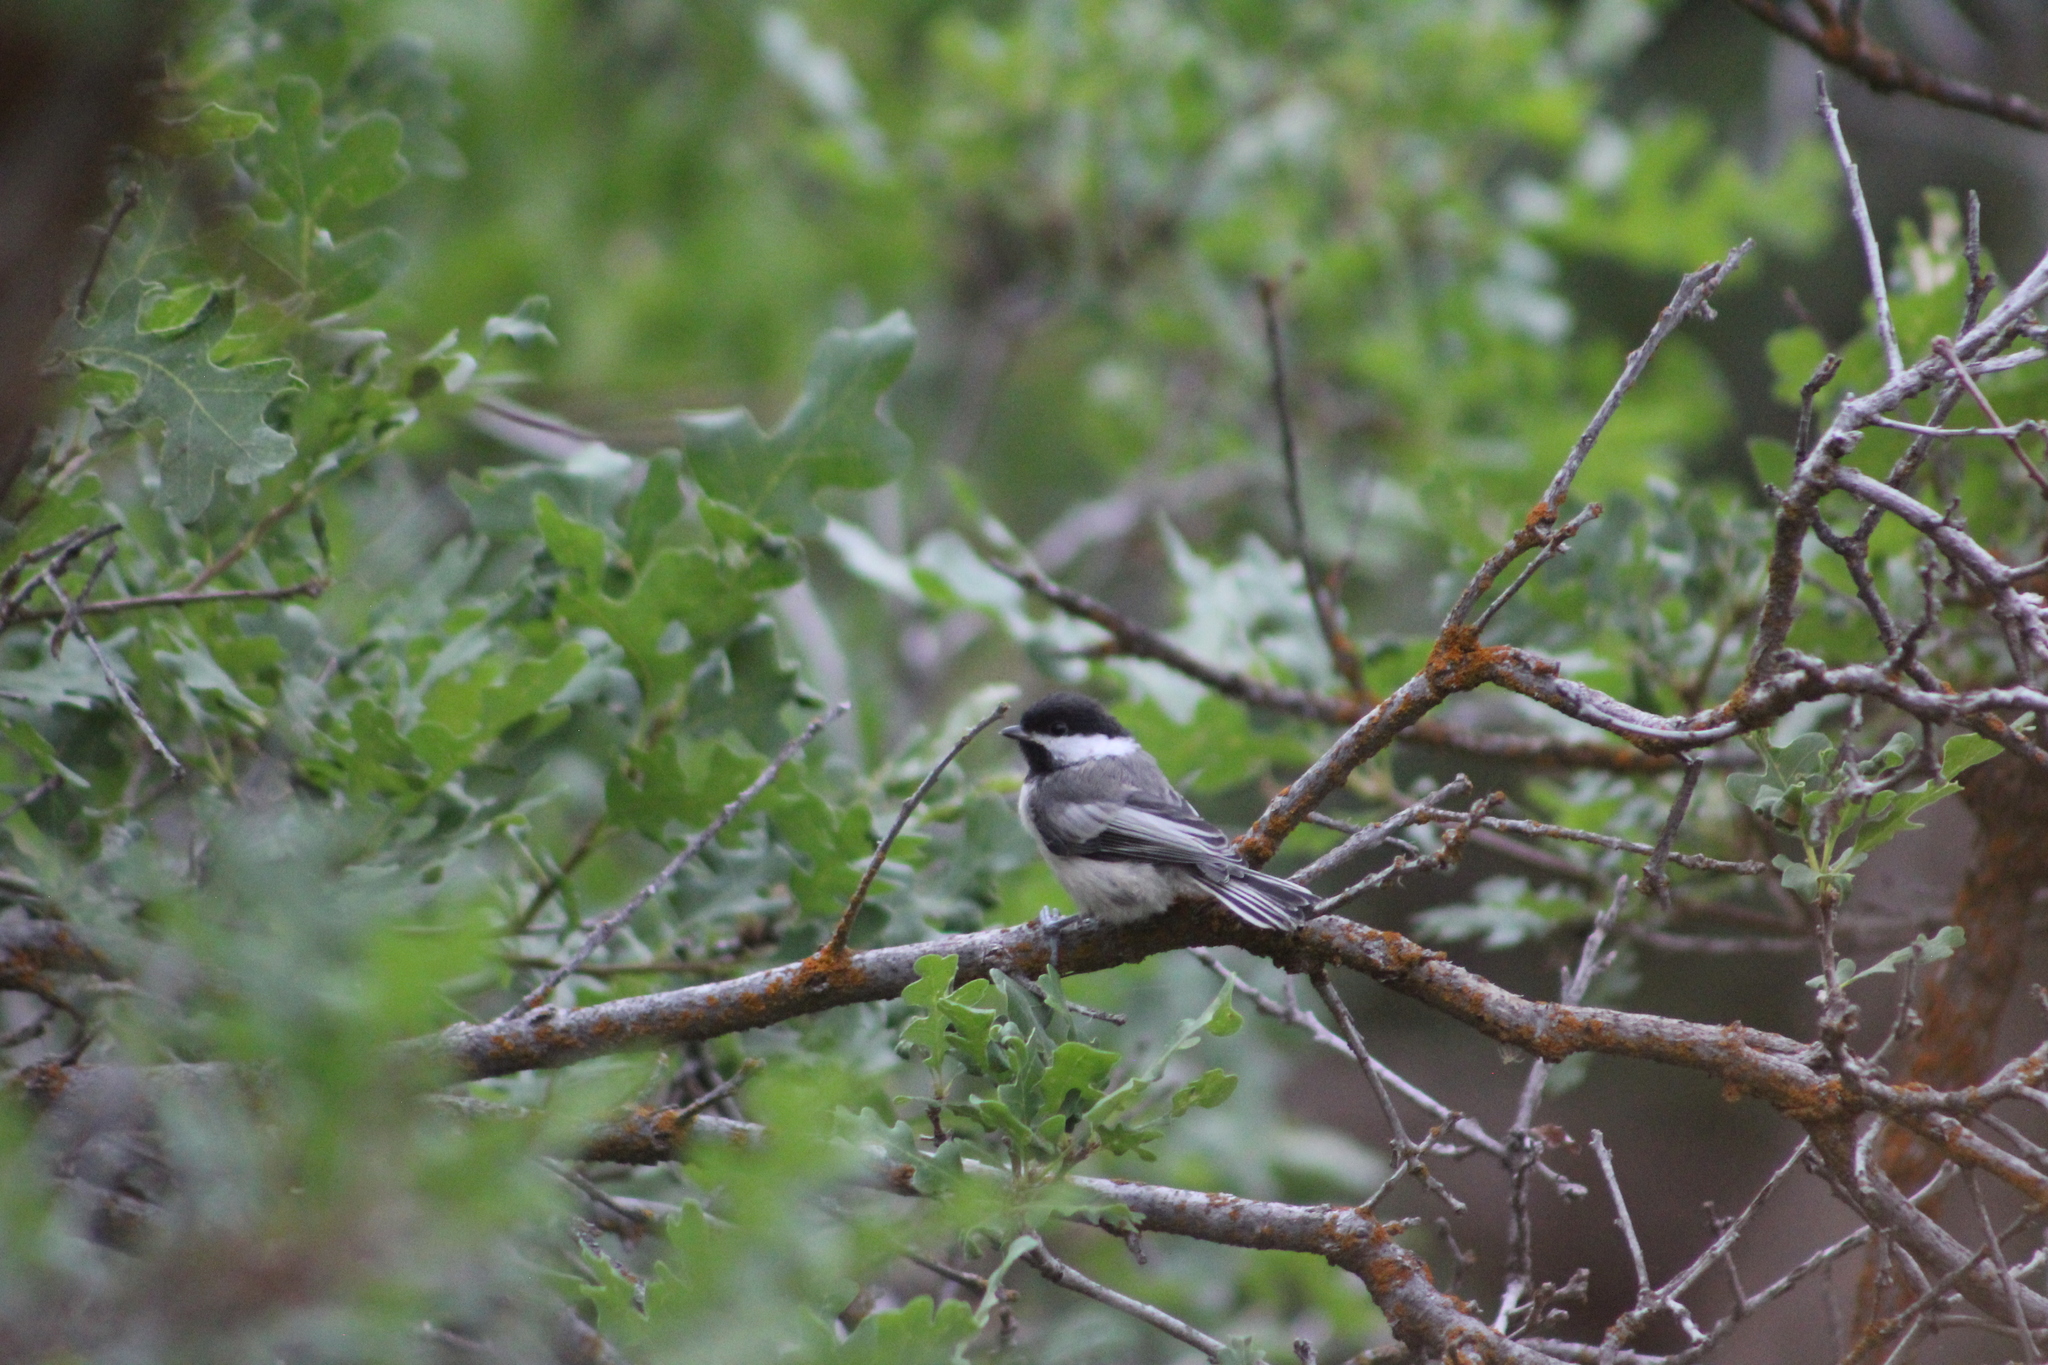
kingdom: Animalia
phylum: Chordata
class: Aves
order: Passeriformes
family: Paridae
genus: Poecile
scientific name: Poecile atricapillus
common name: Black-capped chickadee
